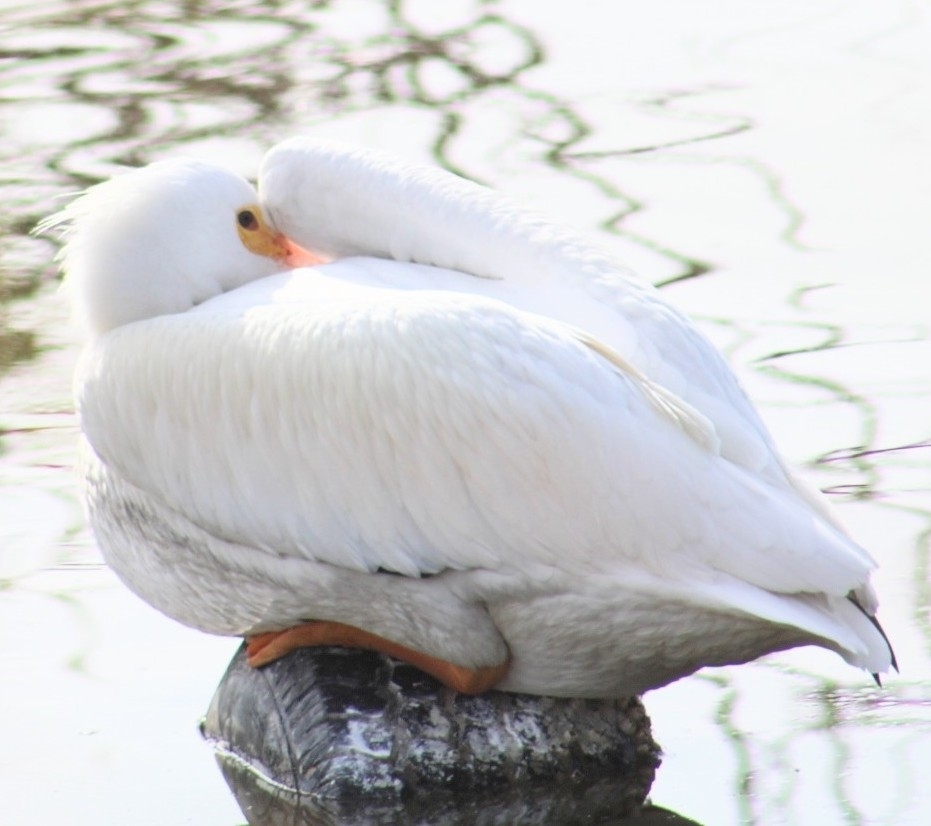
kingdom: Animalia
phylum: Chordata
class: Aves
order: Pelecaniformes
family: Pelecanidae
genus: Pelecanus
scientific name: Pelecanus erythrorhynchos
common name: American white pelican
